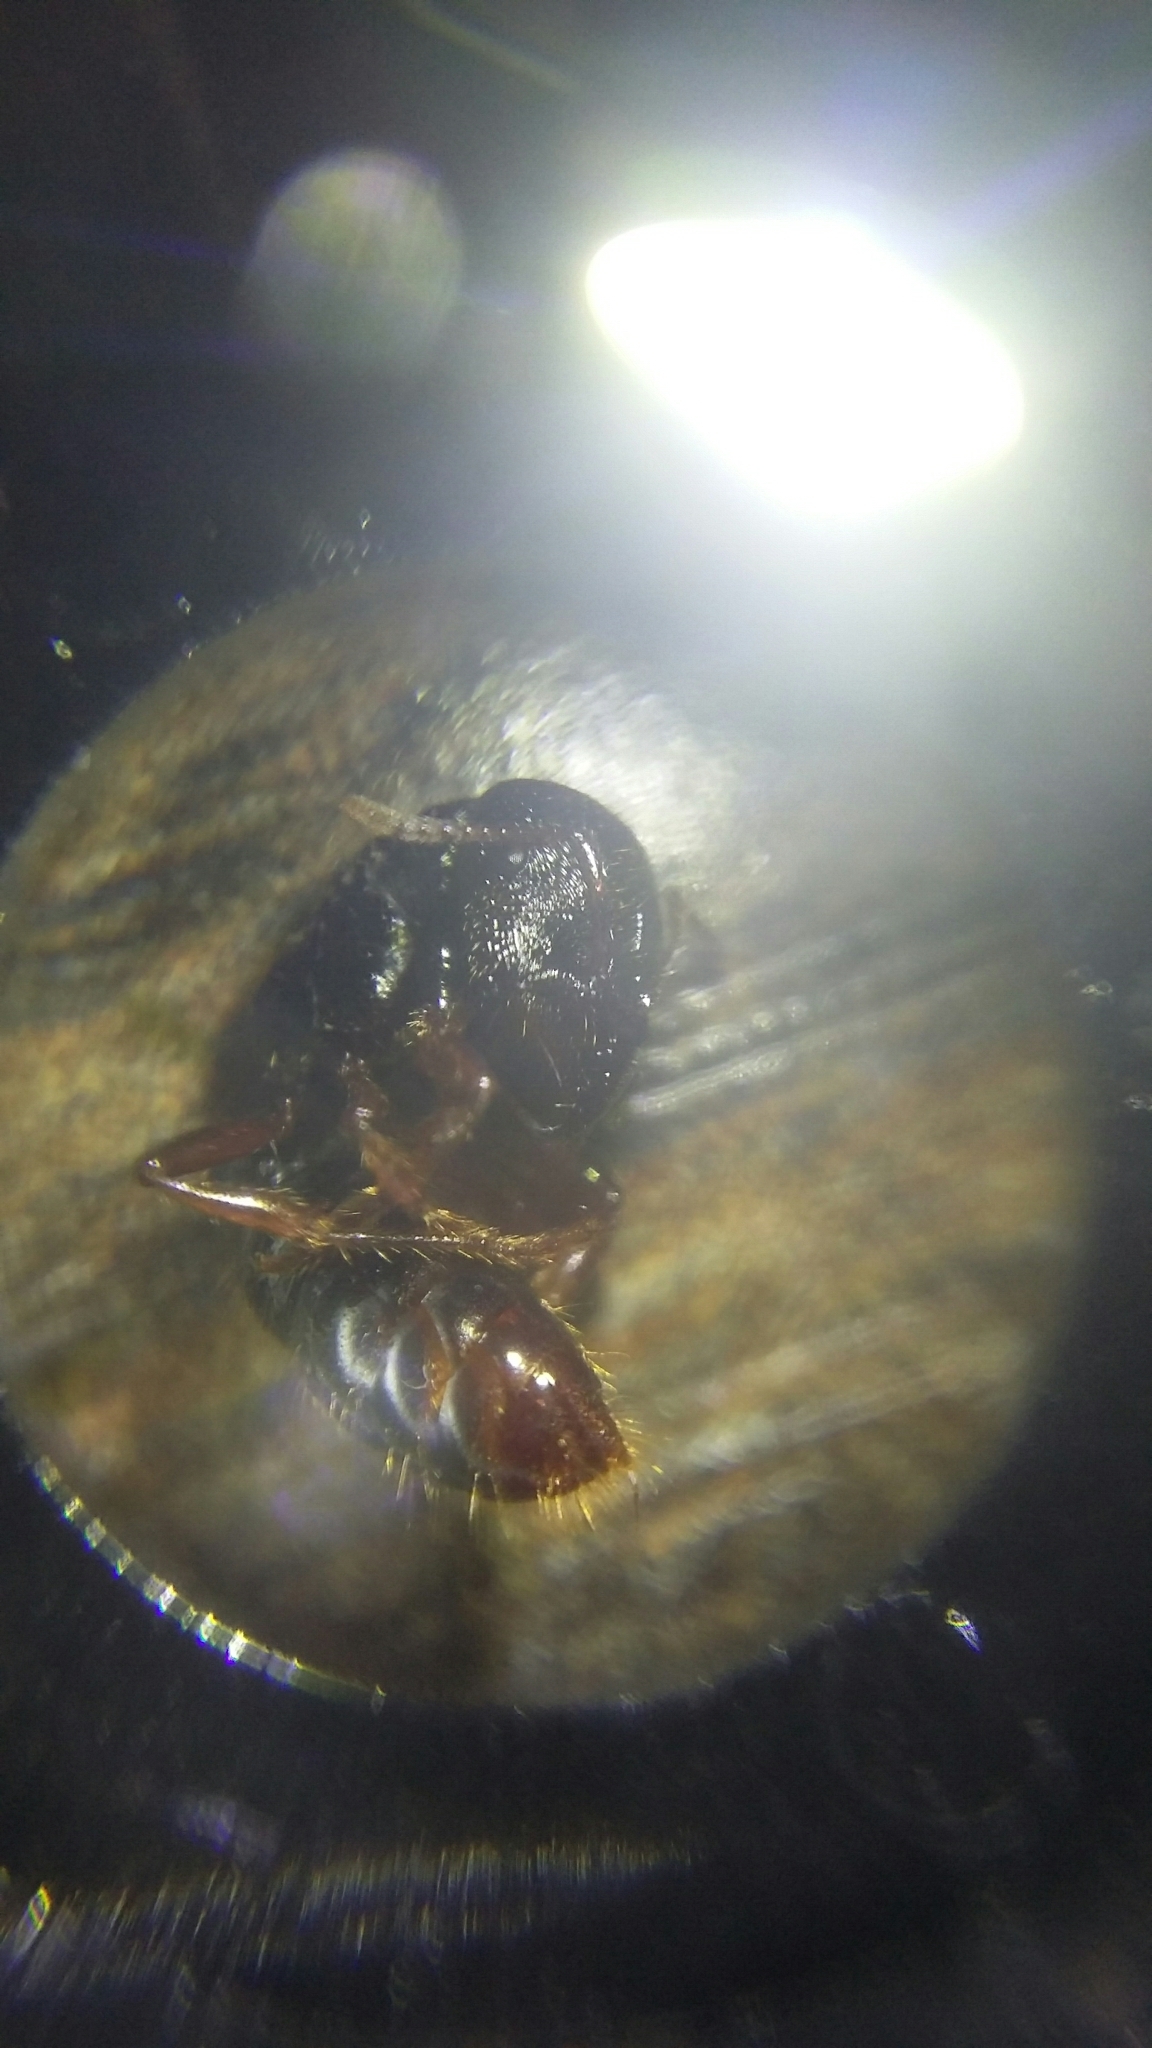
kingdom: Animalia
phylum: Arthropoda
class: Insecta
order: Hymenoptera
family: Formicidae
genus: Amblyopone
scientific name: Amblyopone australis
